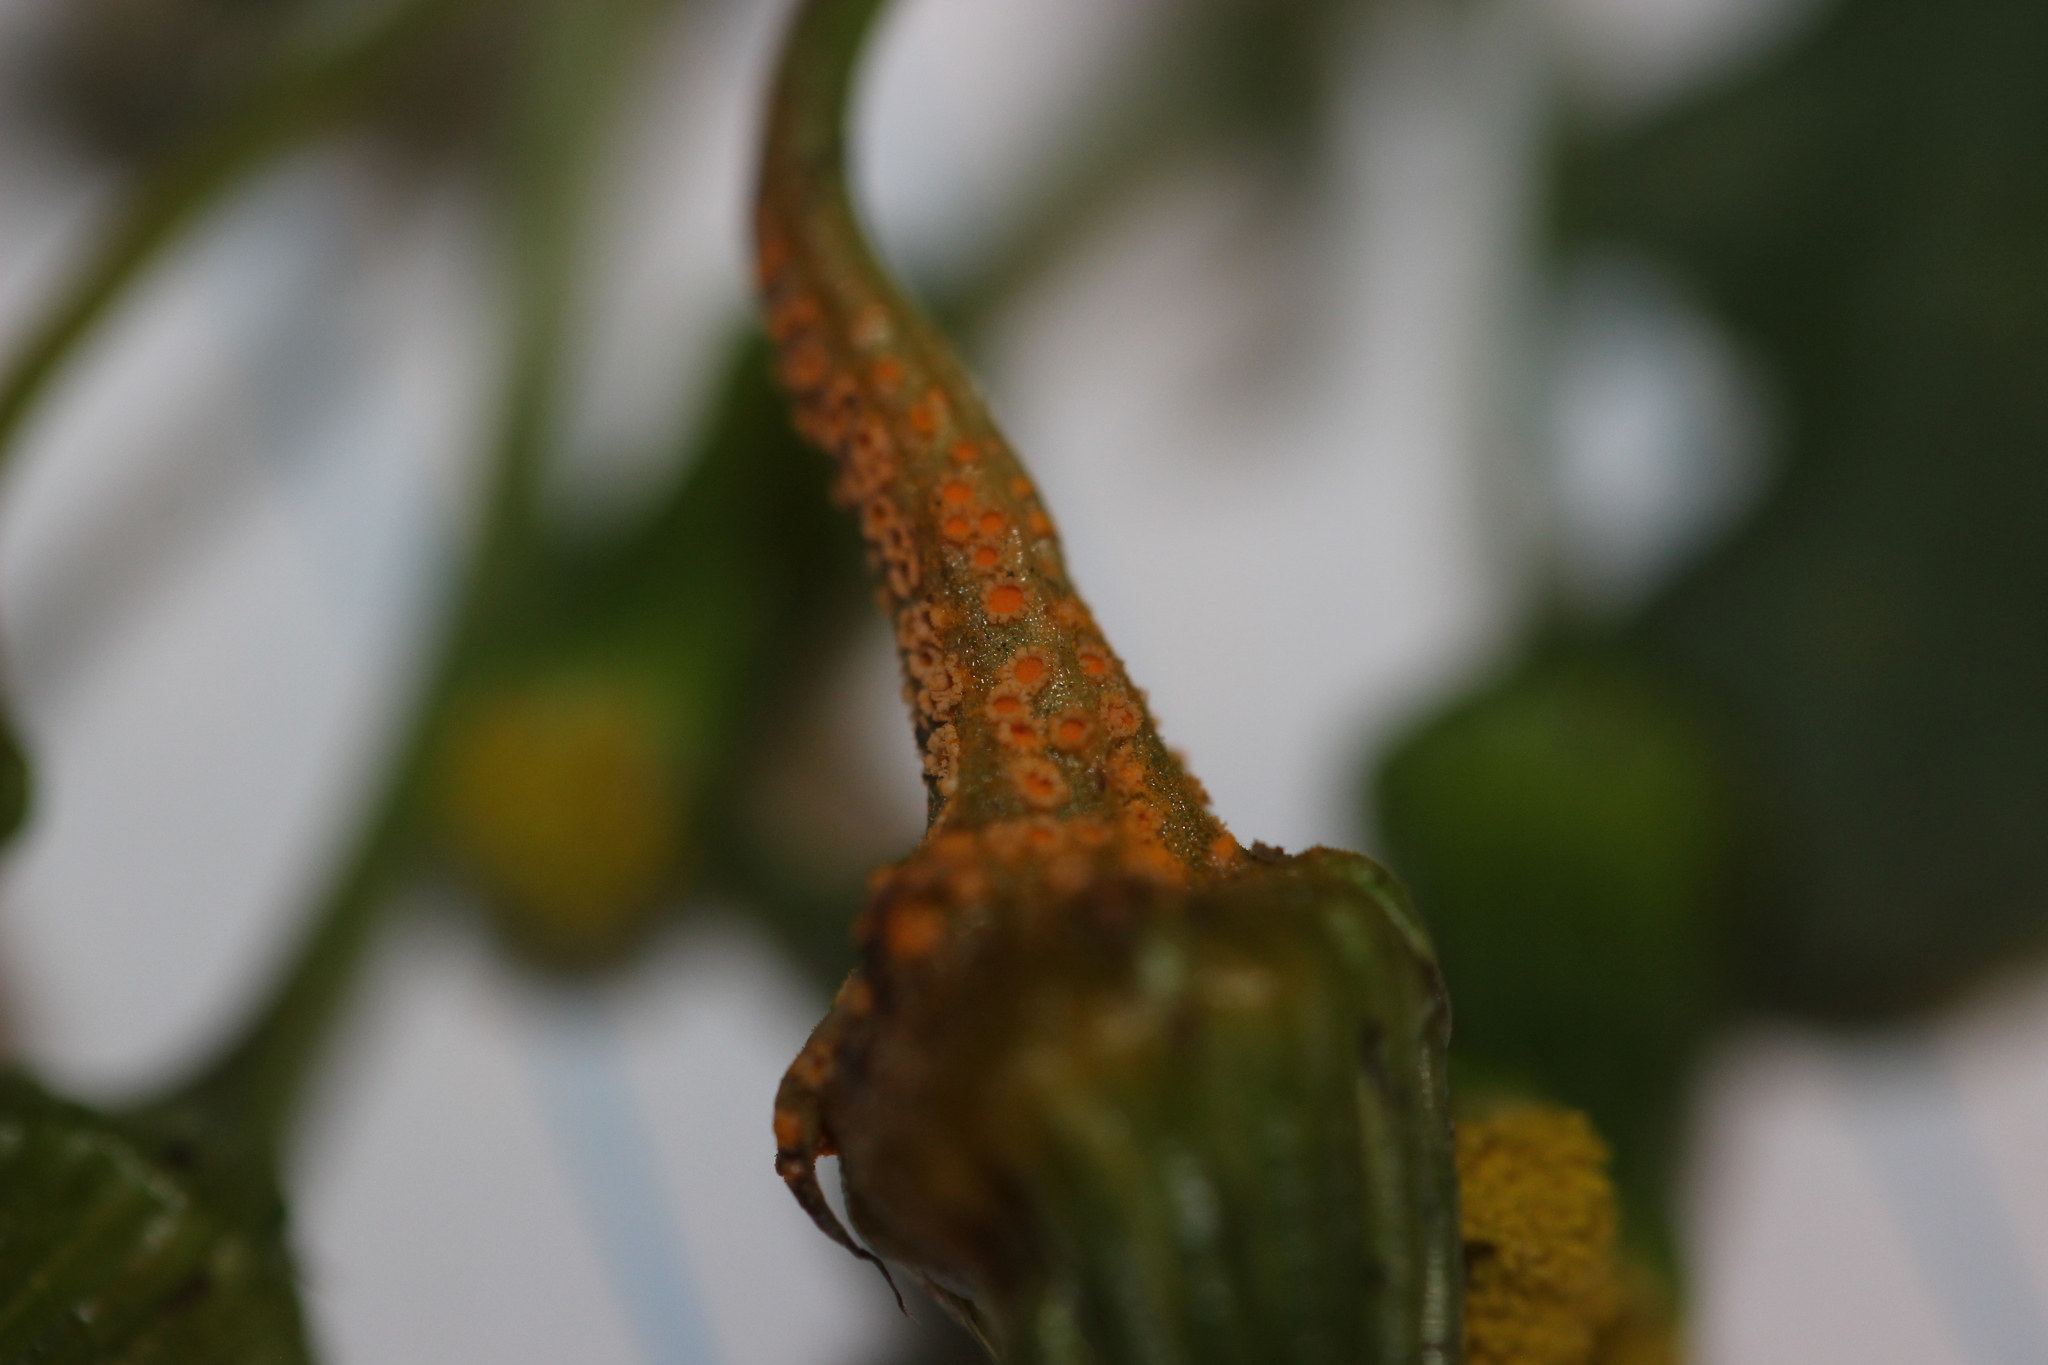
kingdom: Fungi
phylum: Basidiomycota
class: Pucciniomycetes
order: Pucciniales
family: Pucciniaceae
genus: Puccinia
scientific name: Puccinia lagenophorae
